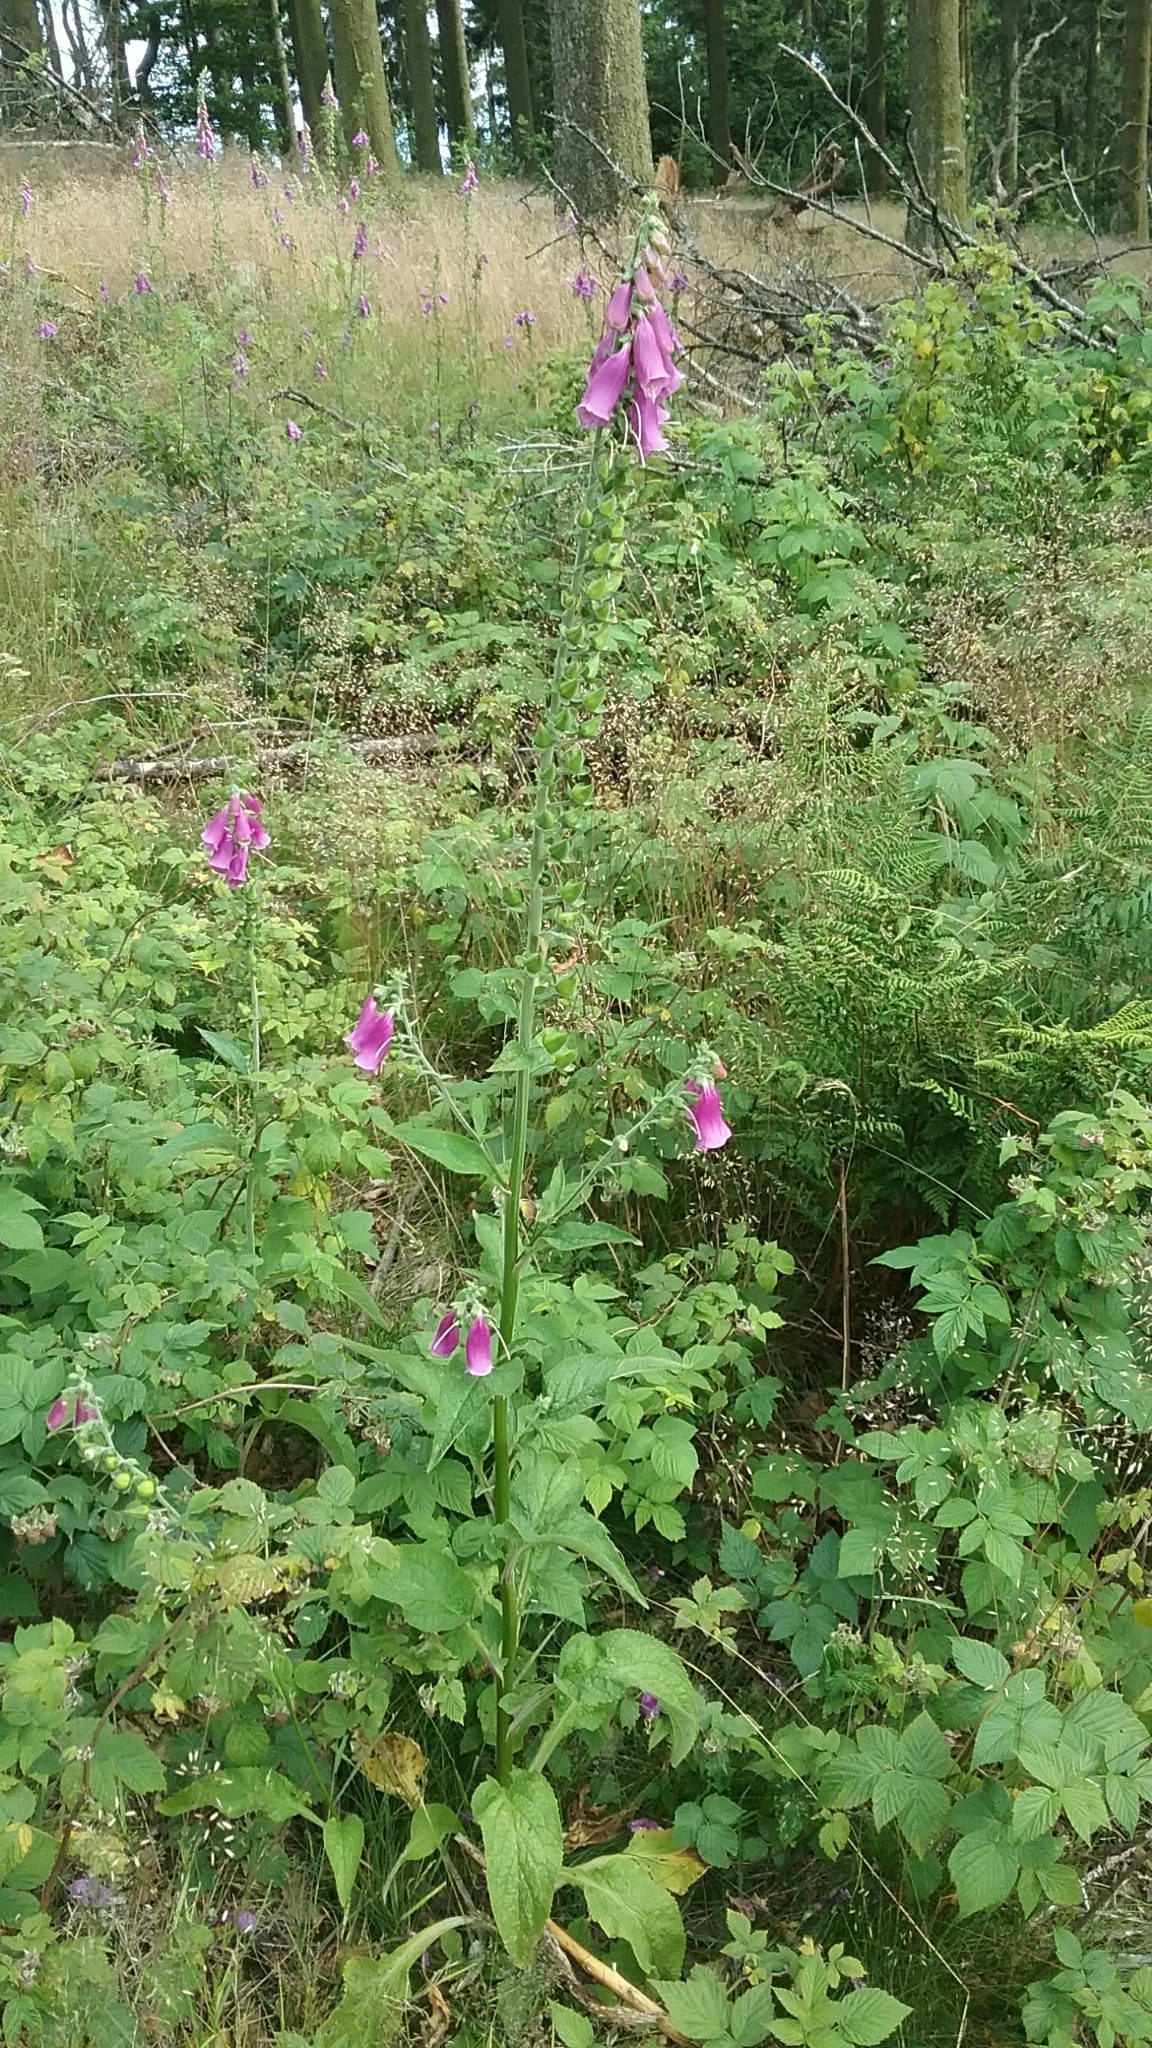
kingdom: Plantae
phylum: Tracheophyta
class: Magnoliopsida
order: Lamiales
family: Plantaginaceae
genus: Digitalis
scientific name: Digitalis purpurea
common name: Foxglove
